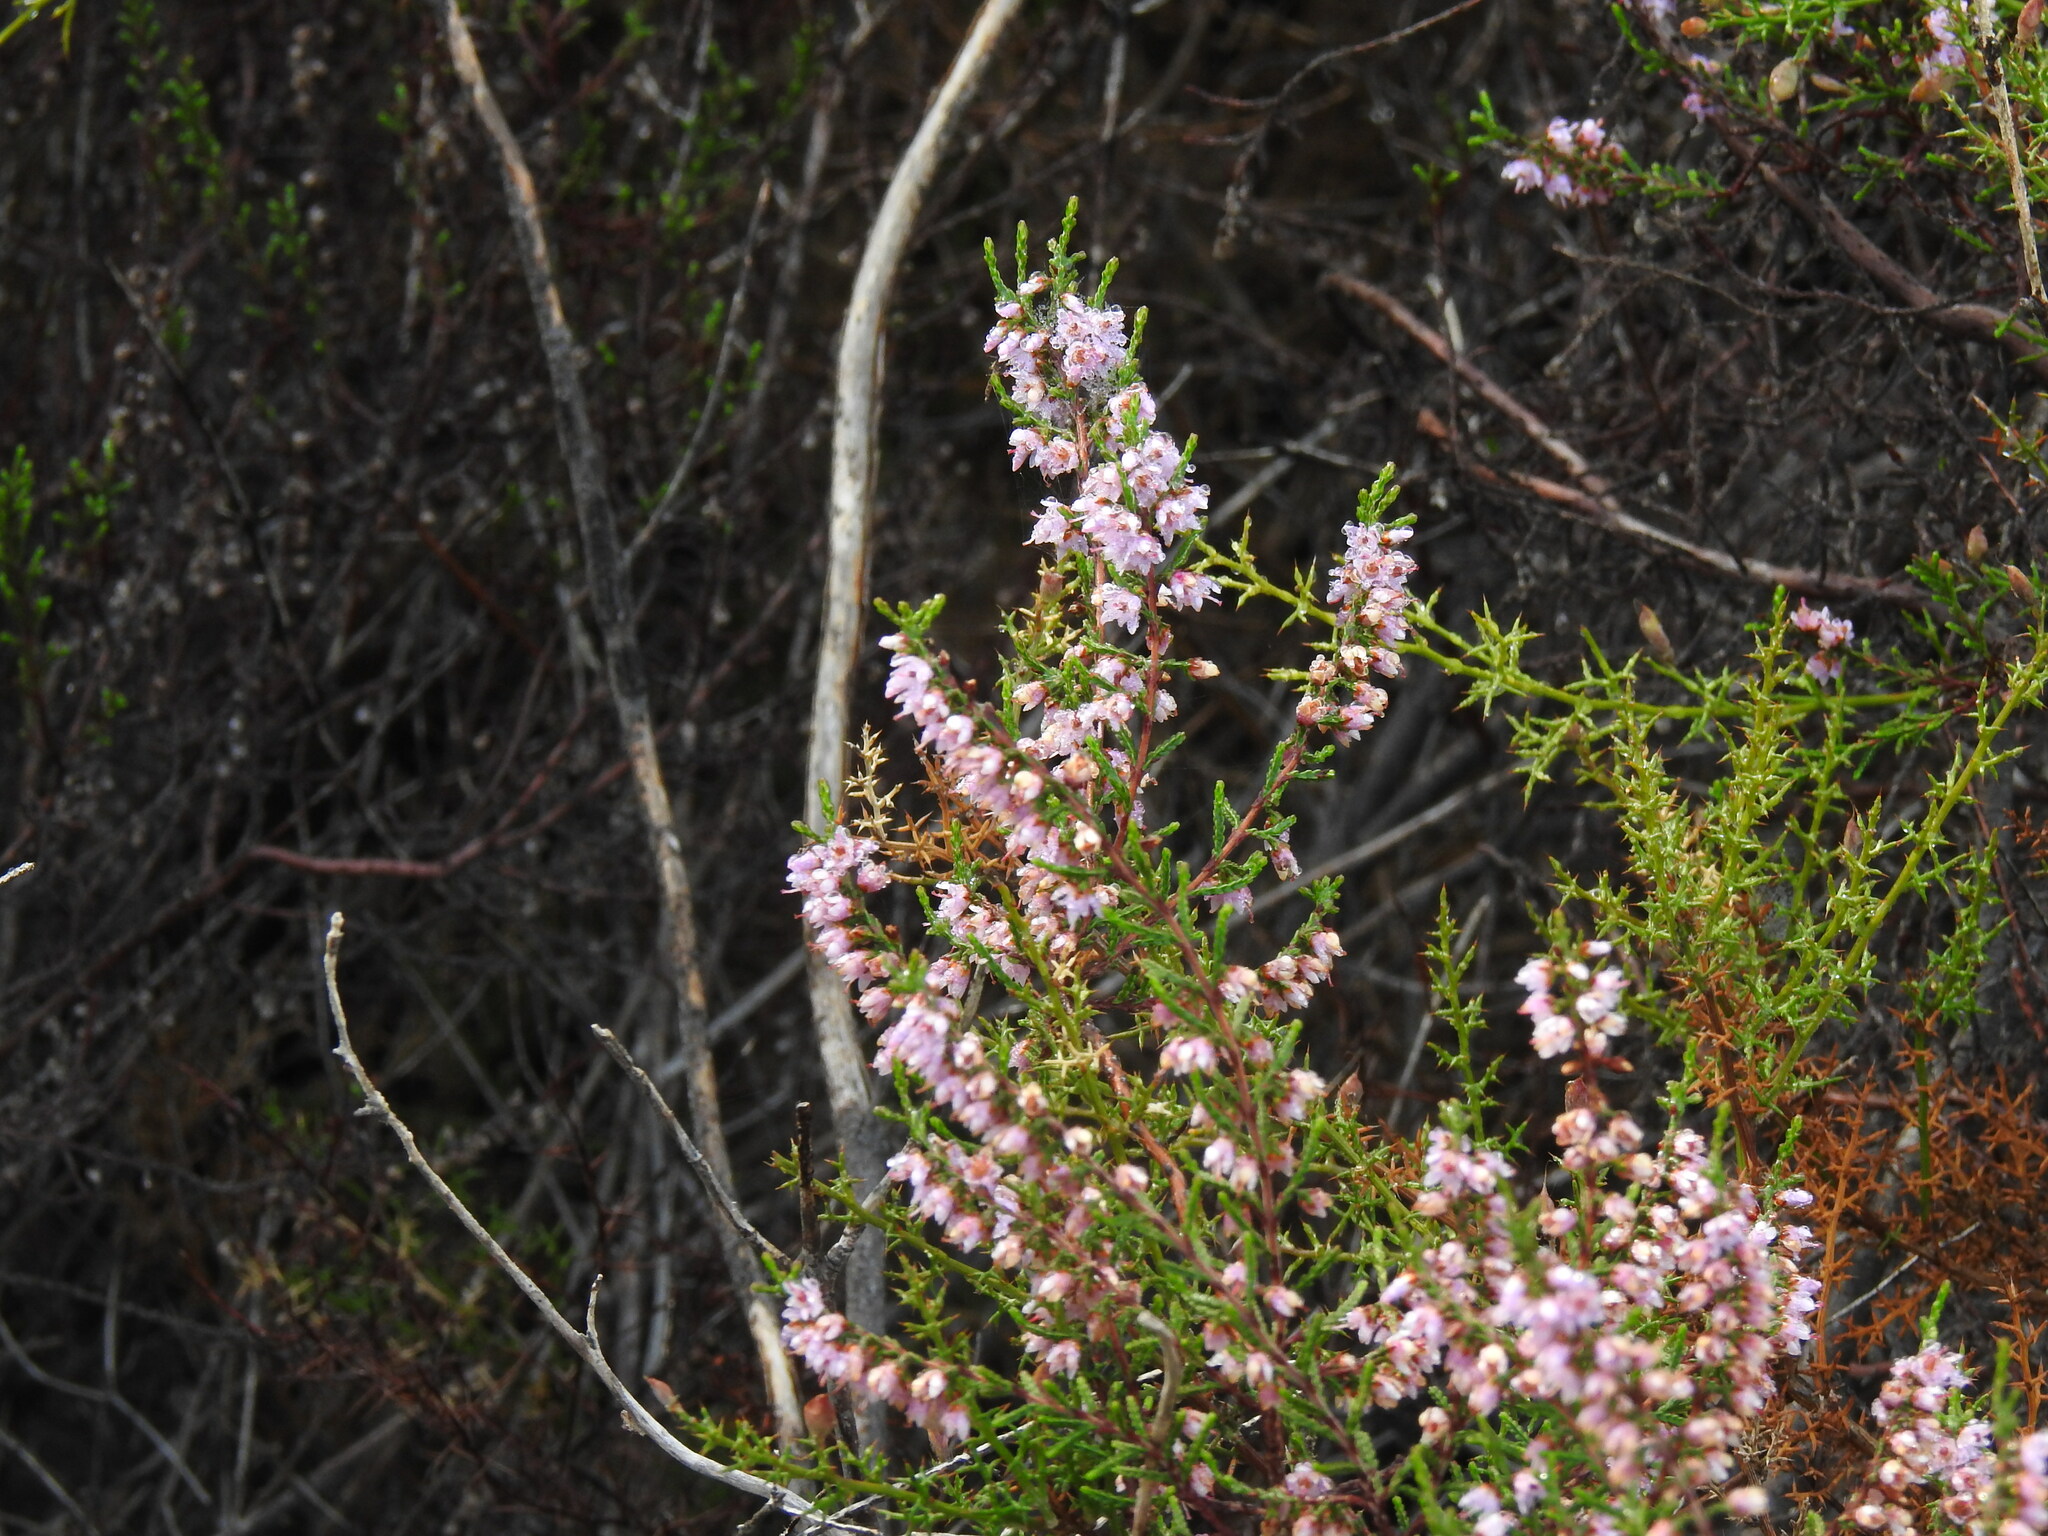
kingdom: Plantae
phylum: Tracheophyta
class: Magnoliopsida
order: Ericales
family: Ericaceae
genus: Calluna
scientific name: Calluna vulgaris
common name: Heather
